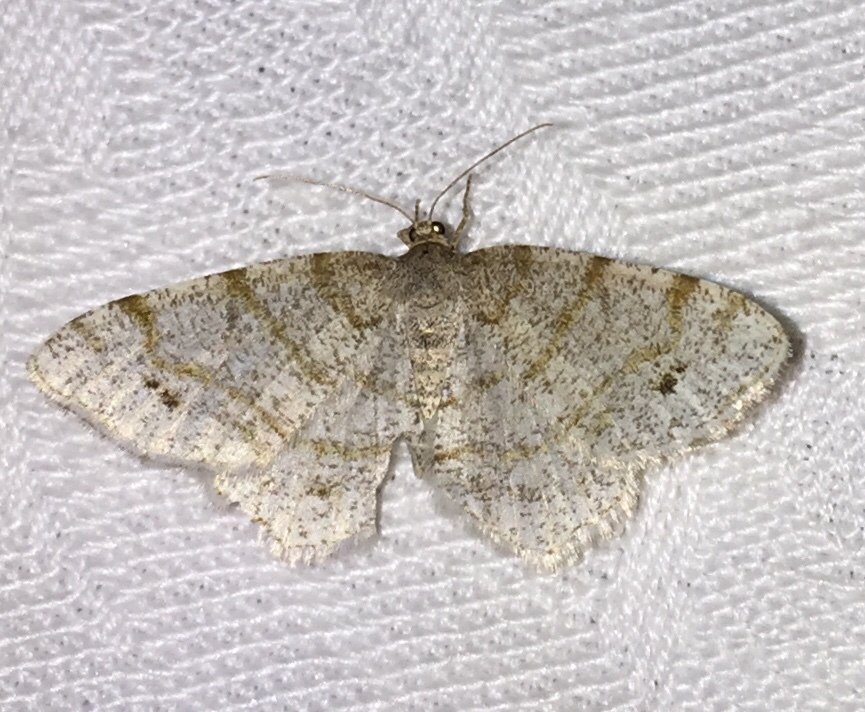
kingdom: Animalia
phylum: Arthropoda
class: Insecta
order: Lepidoptera
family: Geometridae
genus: Trigrammia
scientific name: Trigrammia quadrinotaria
